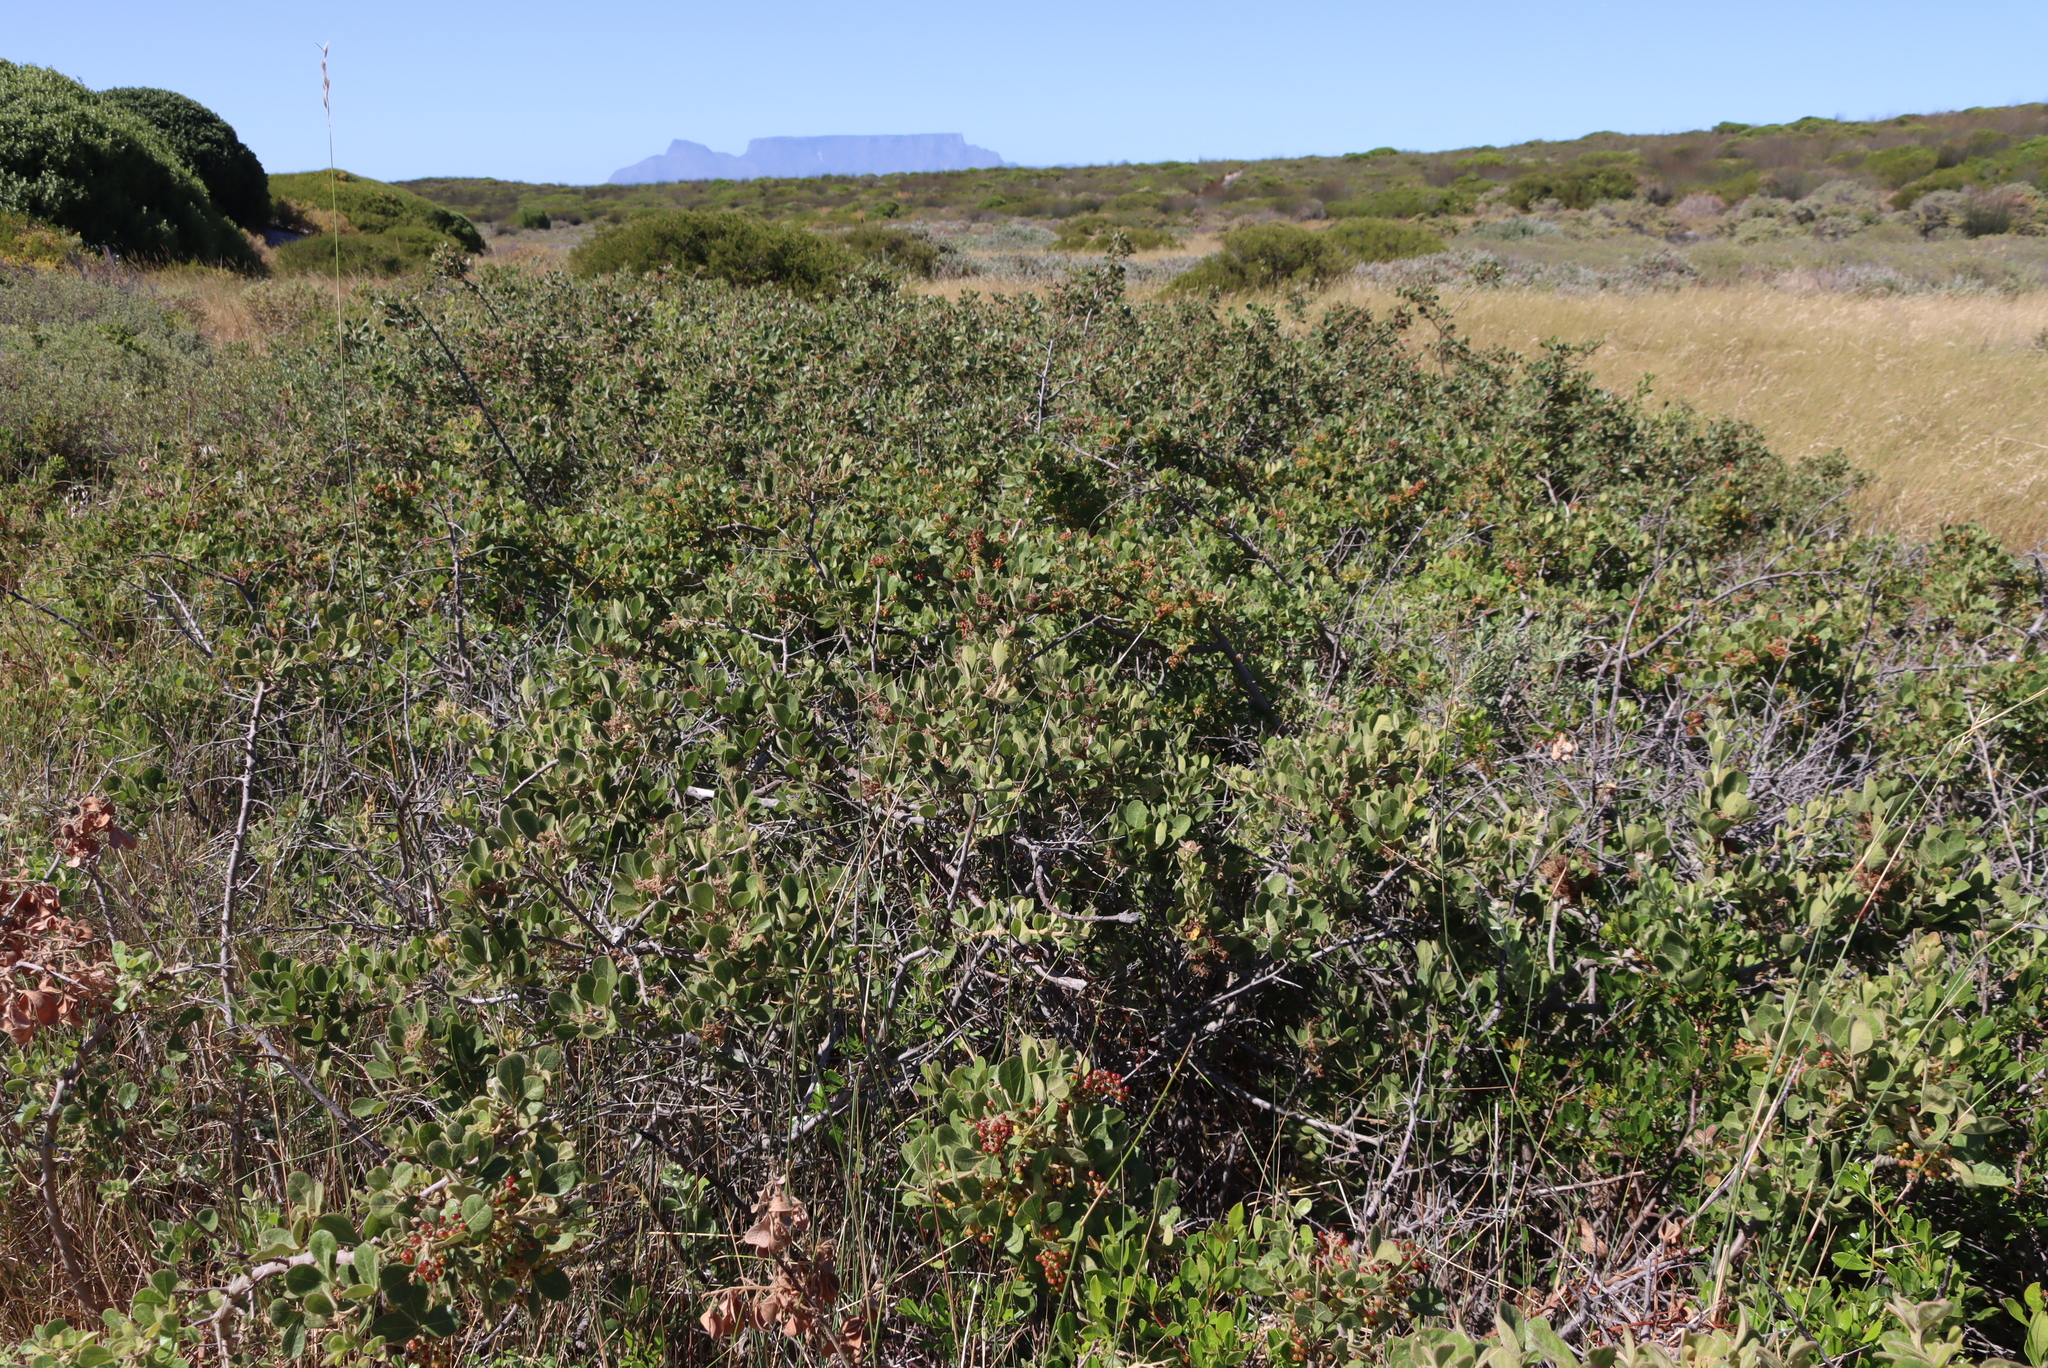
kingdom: Plantae
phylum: Tracheophyta
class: Magnoliopsida
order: Sapindales
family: Anacardiaceae
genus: Searsia
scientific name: Searsia laevigata
